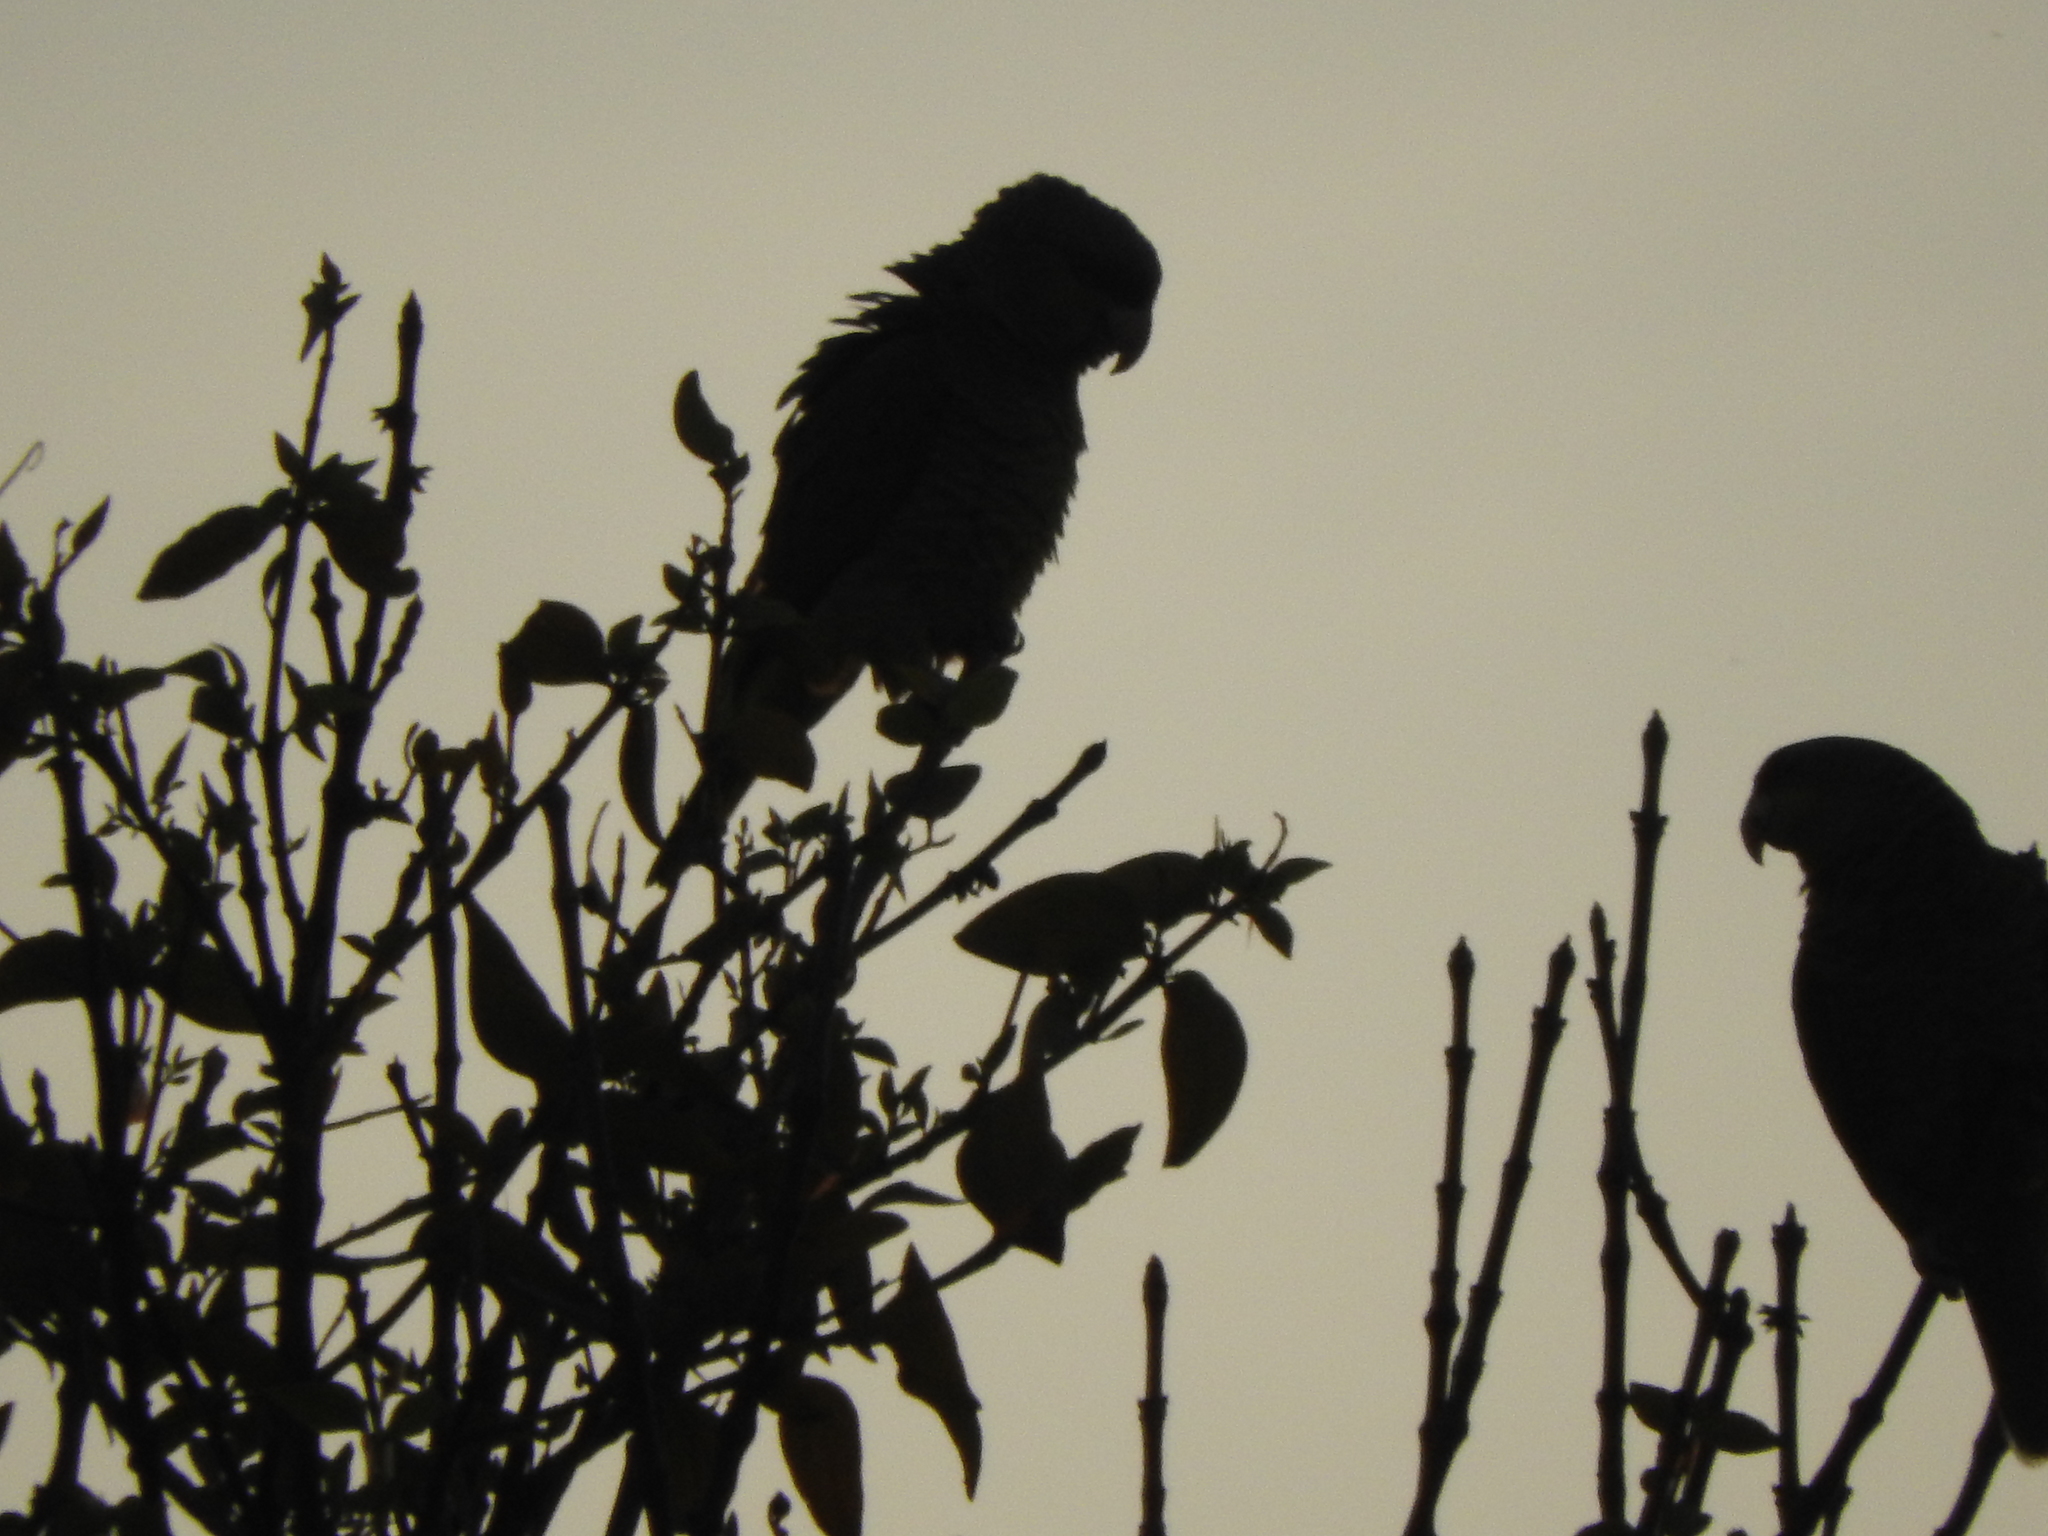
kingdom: Animalia
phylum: Chordata
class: Aves
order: Psittaciformes
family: Psittacidae
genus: Amazona
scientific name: Amazona finschi
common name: Lilac-crowned amazon
